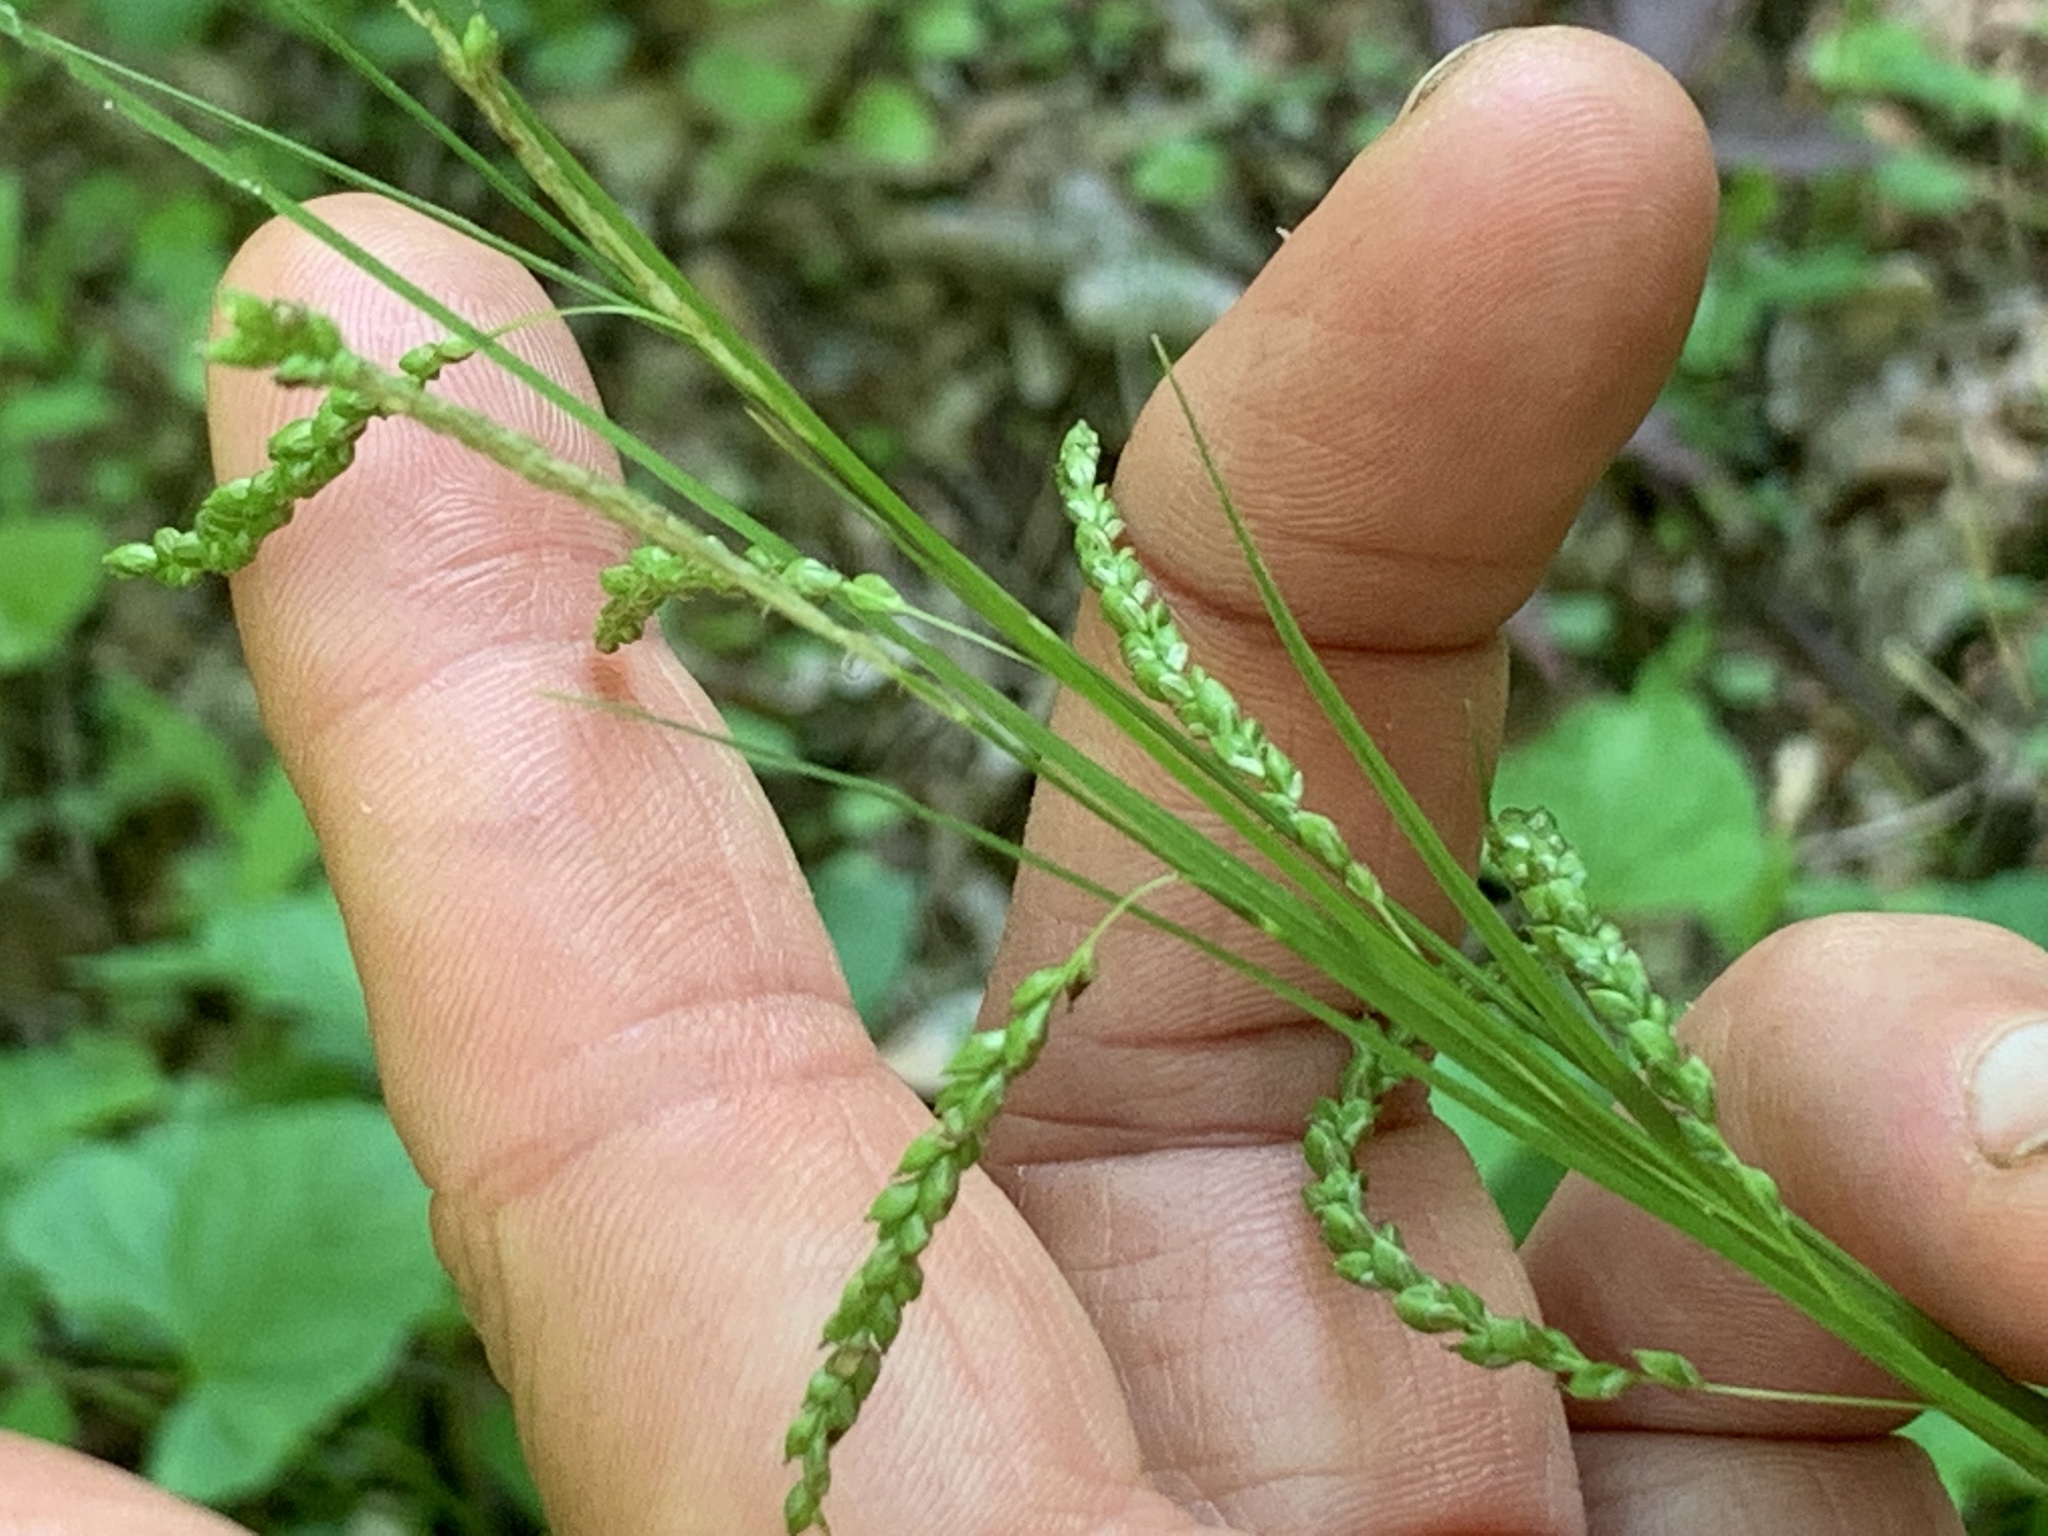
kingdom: Plantae
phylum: Tracheophyta
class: Liliopsida
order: Poales
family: Cyperaceae
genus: Carex
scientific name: Carex gracillima
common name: Graceful sedge
